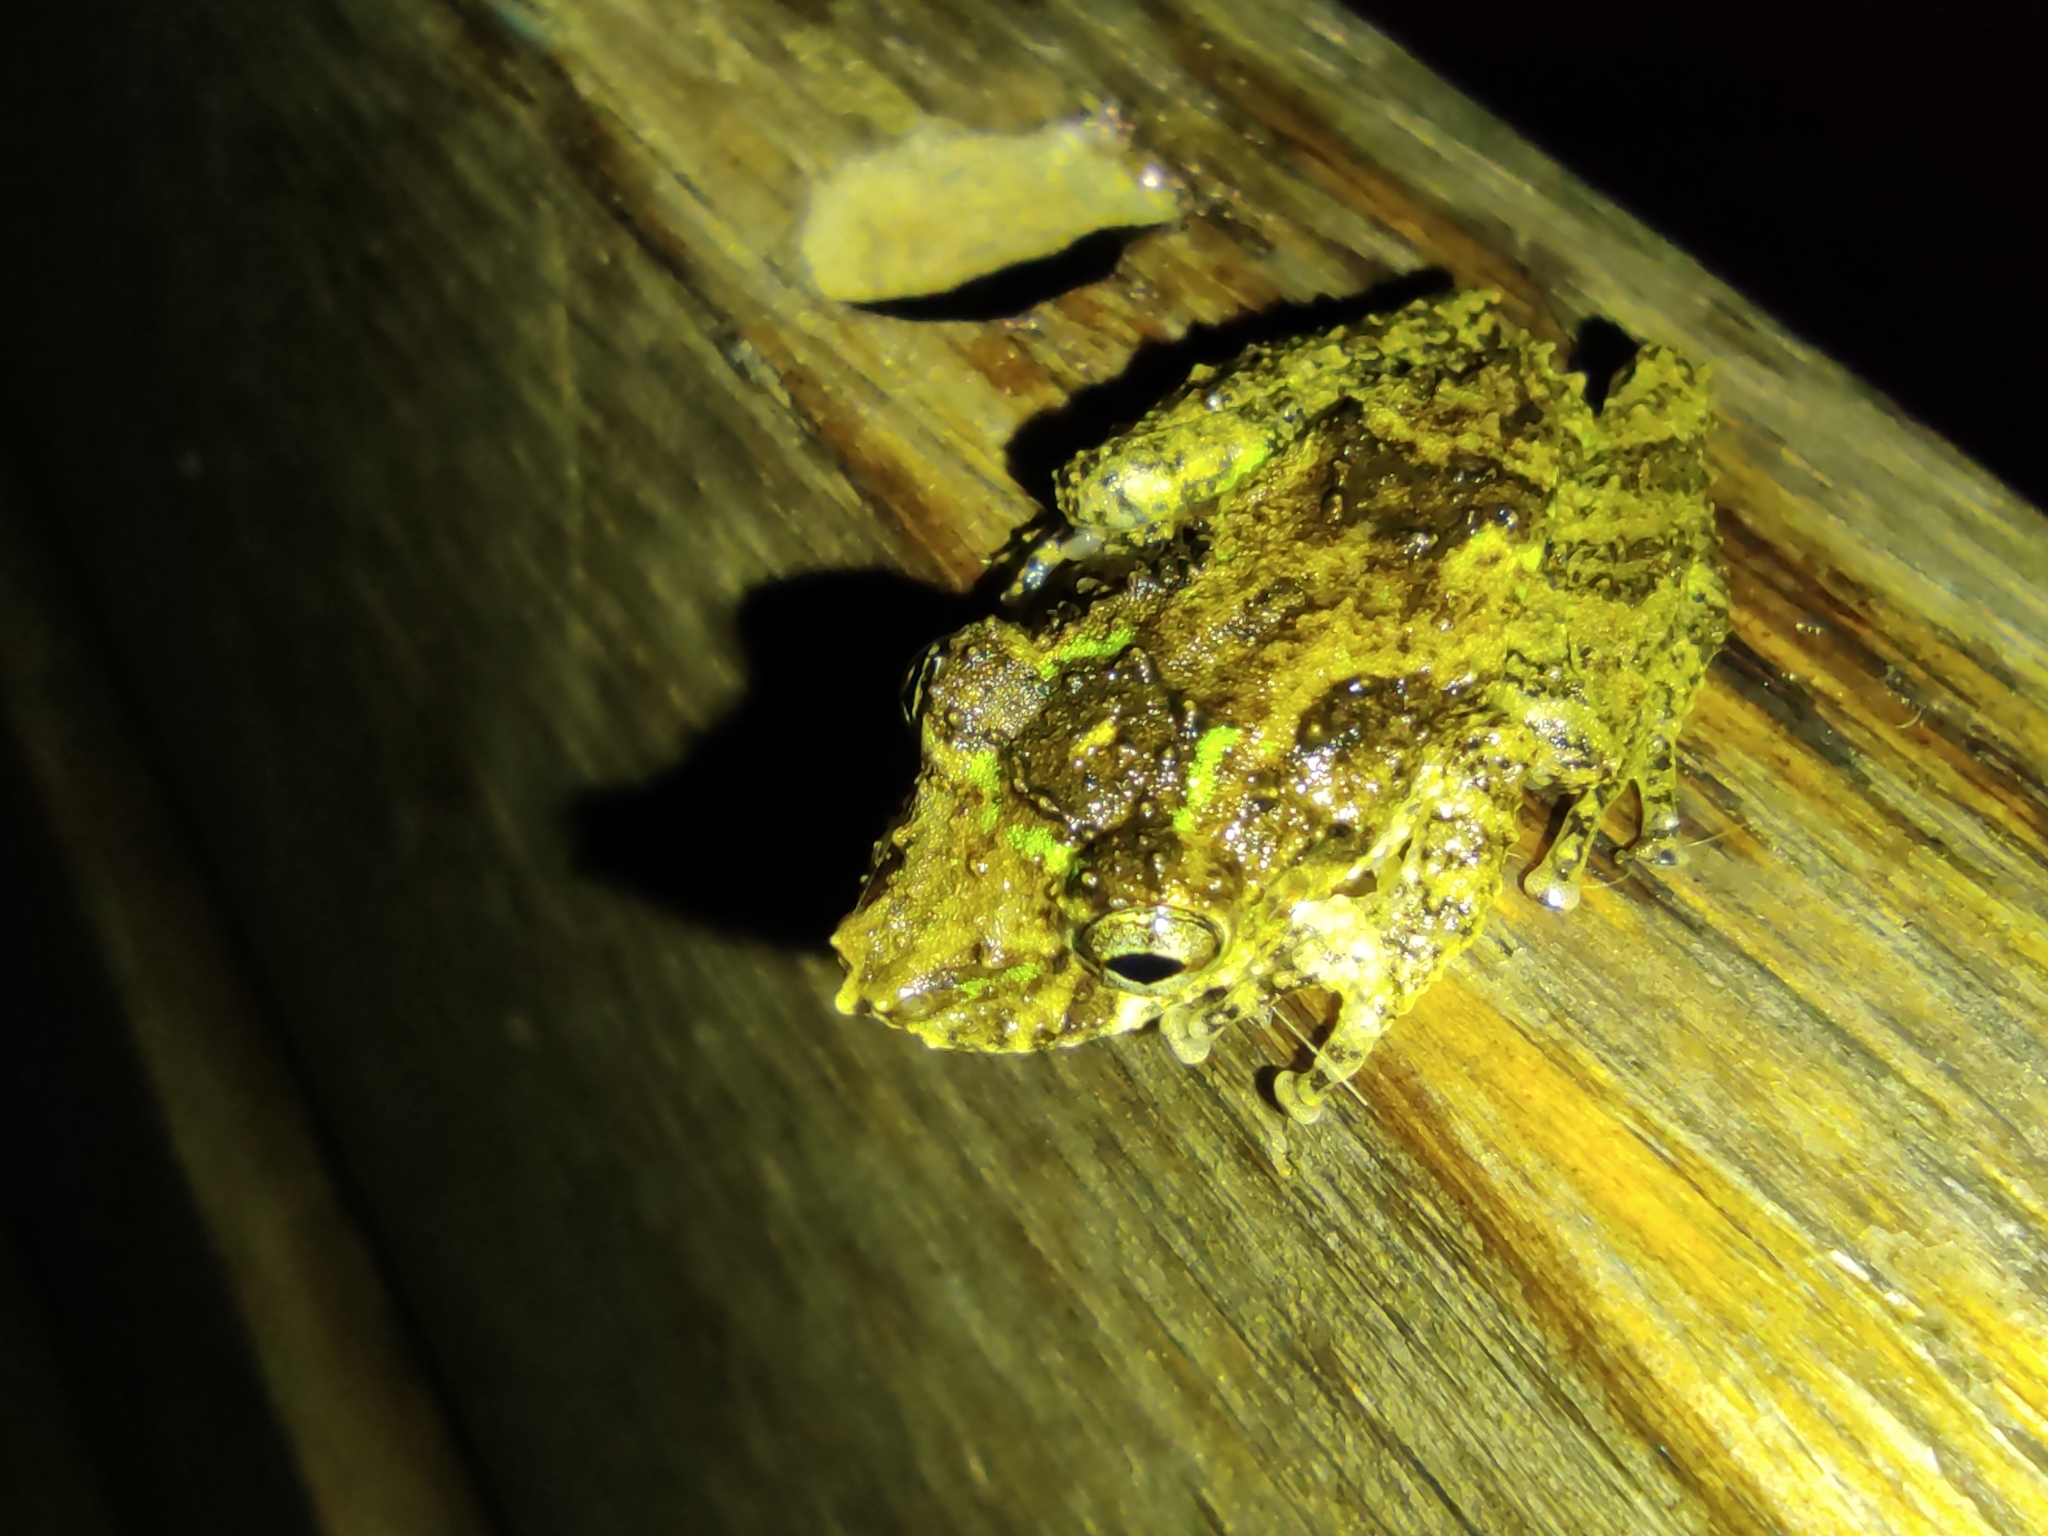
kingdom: Animalia
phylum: Chordata
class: Amphibia
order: Anura
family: Hylidae
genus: Scinax
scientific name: Scinax boulengeri
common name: Boulenger's snouted treefrog
